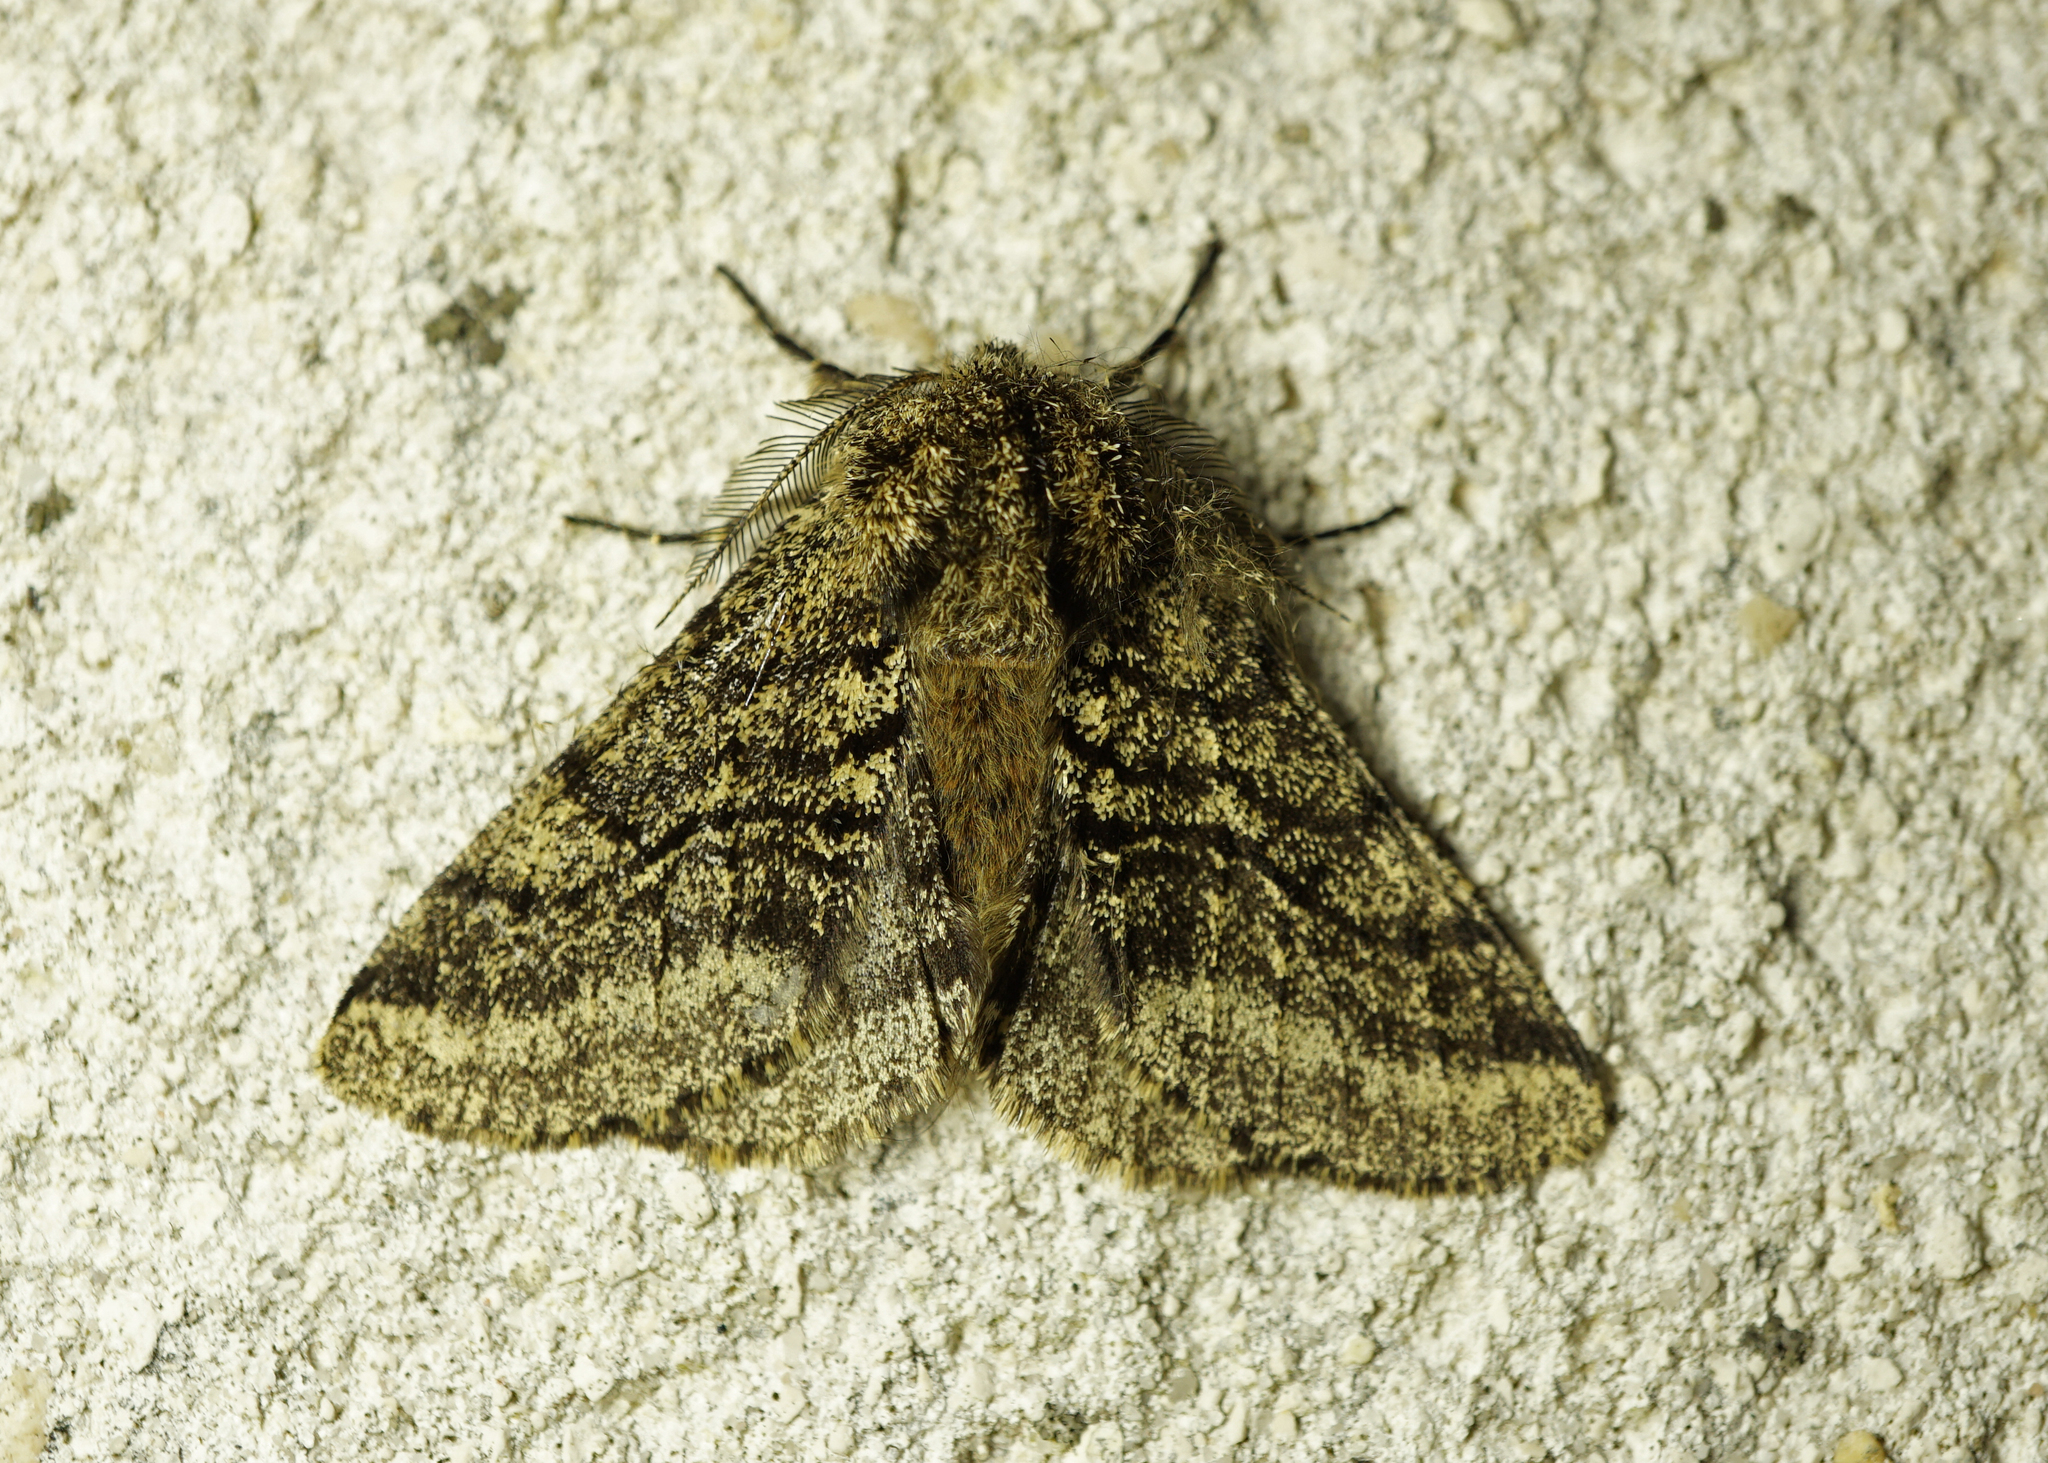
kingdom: Animalia
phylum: Arthropoda
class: Insecta
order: Lepidoptera
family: Geometridae
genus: Lycia
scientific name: Lycia hirtaria
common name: Brindled beauty
